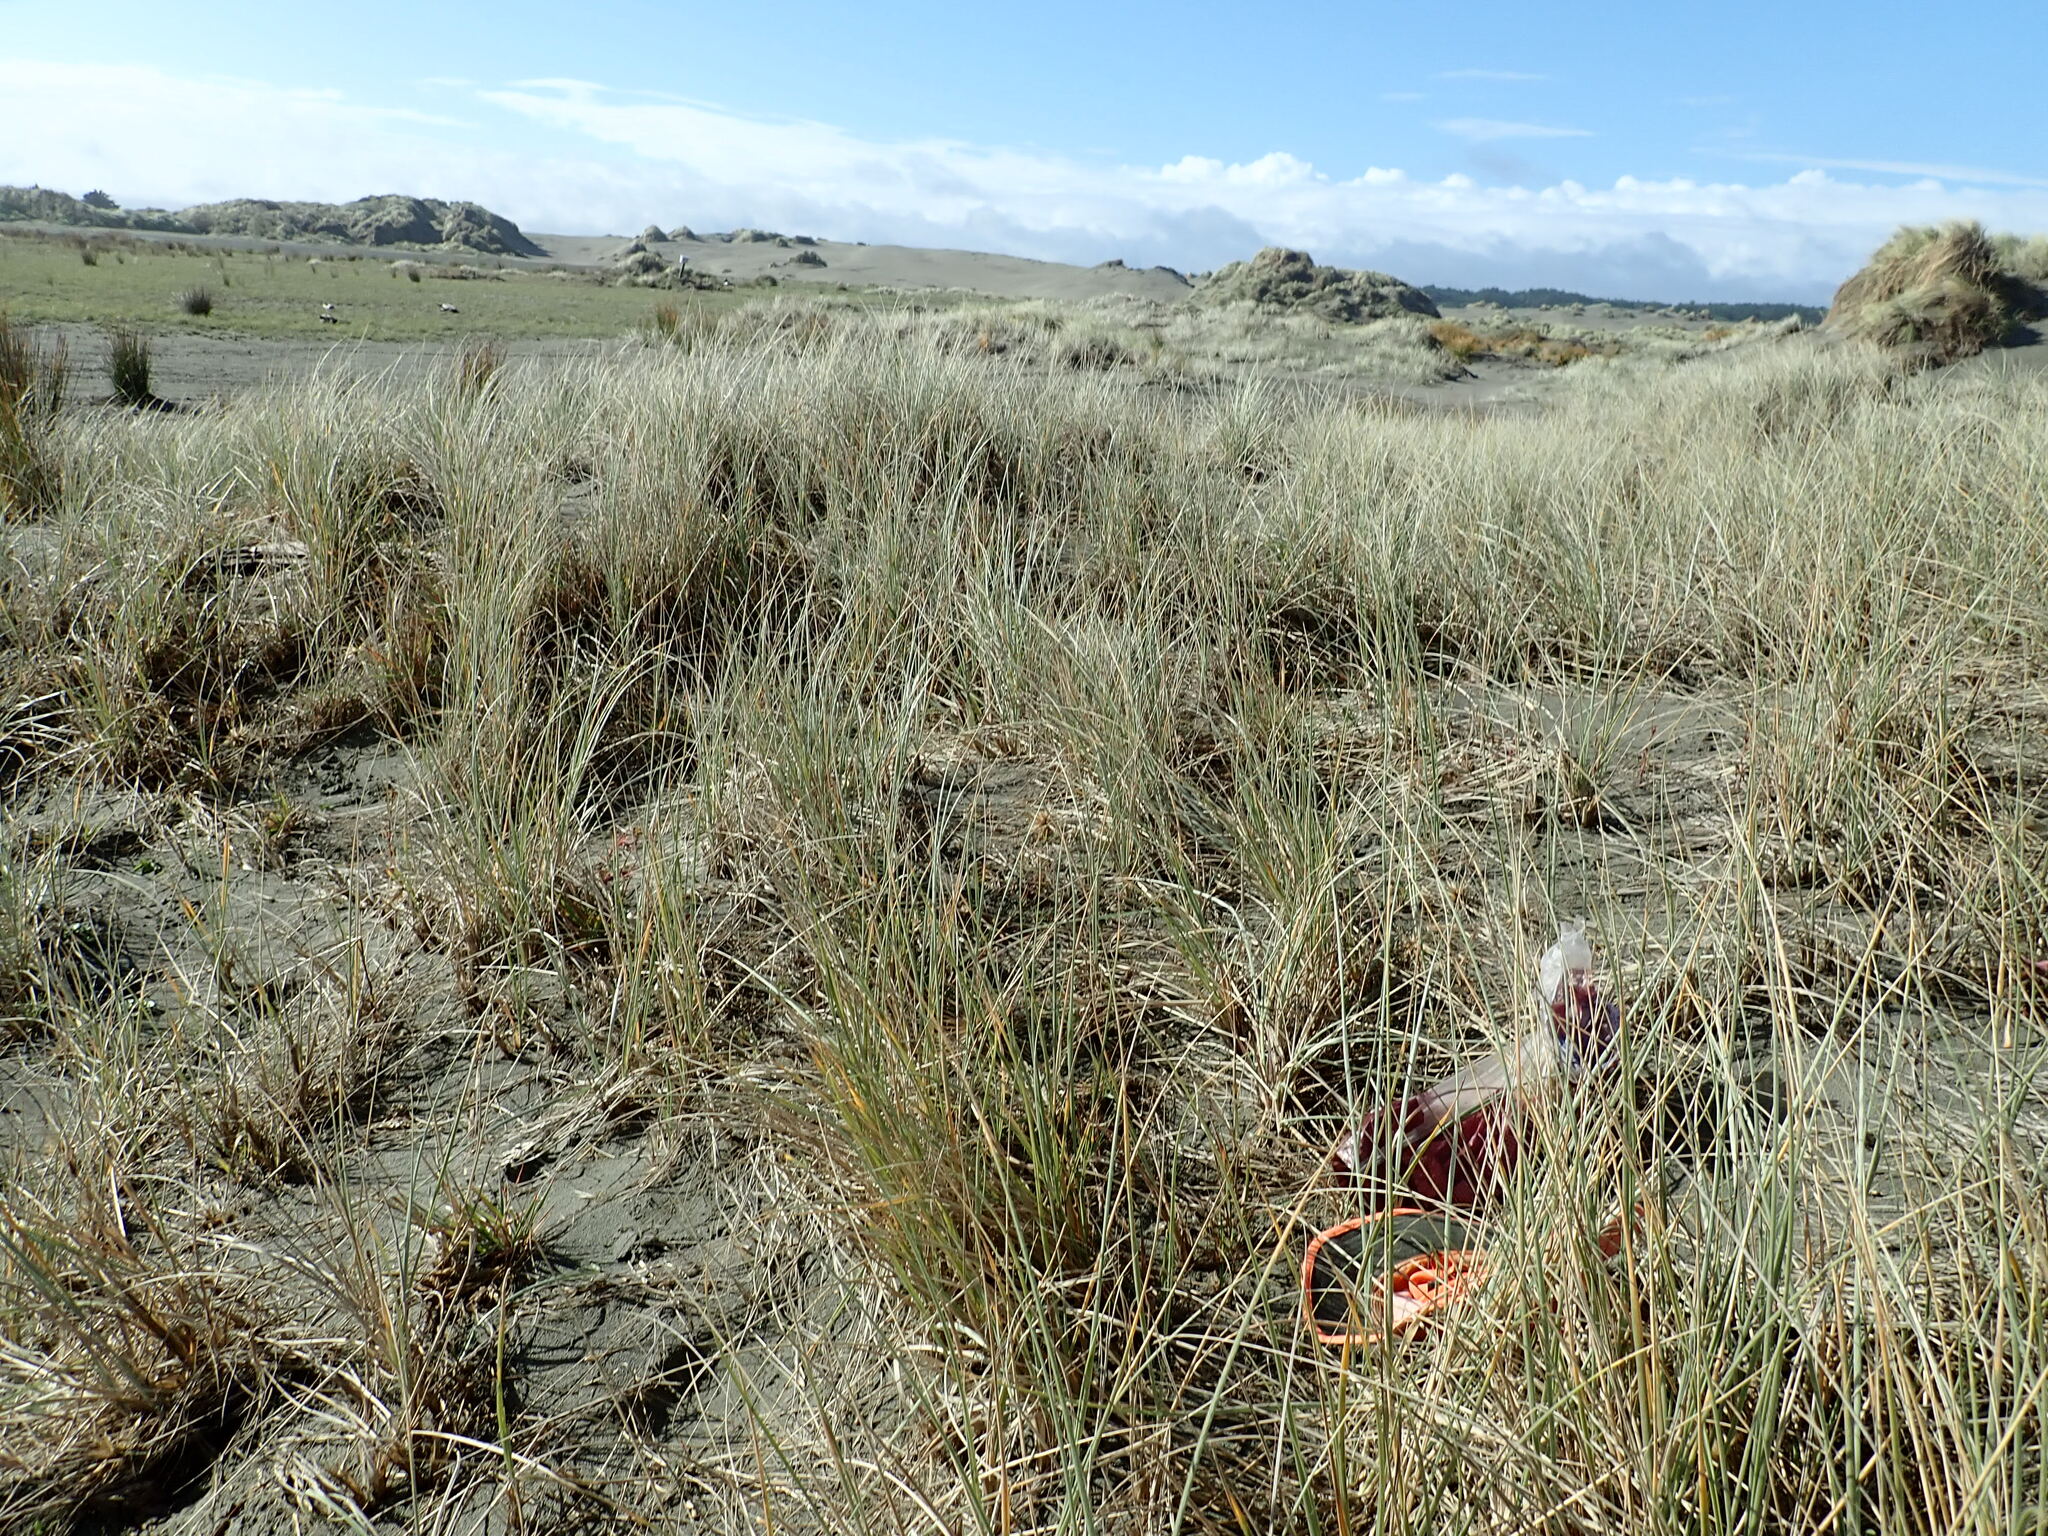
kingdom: Plantae
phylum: Tracheophyta
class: Magnoliopsida
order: Gentianales
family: Rubiaceae
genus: Coprosma
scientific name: Coprosma acerosa
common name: Sand coprosma
